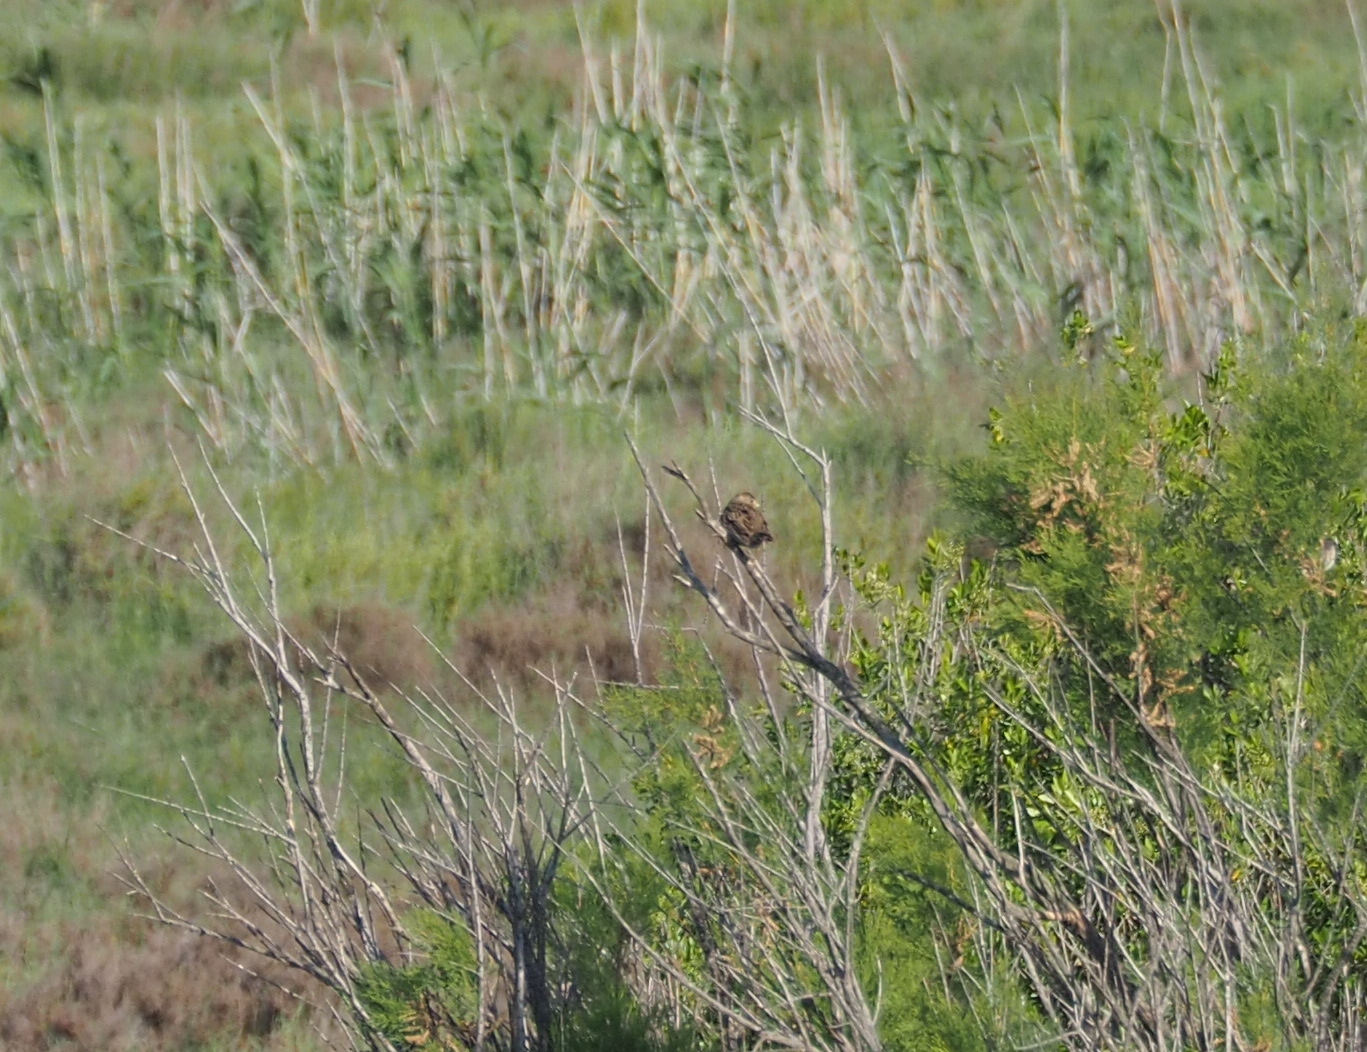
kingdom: Animalia
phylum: Chordata
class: Aves
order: Passeriformes
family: Emberizidae
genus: Emberiza
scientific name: Emberiza calandra
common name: Corn bunting
